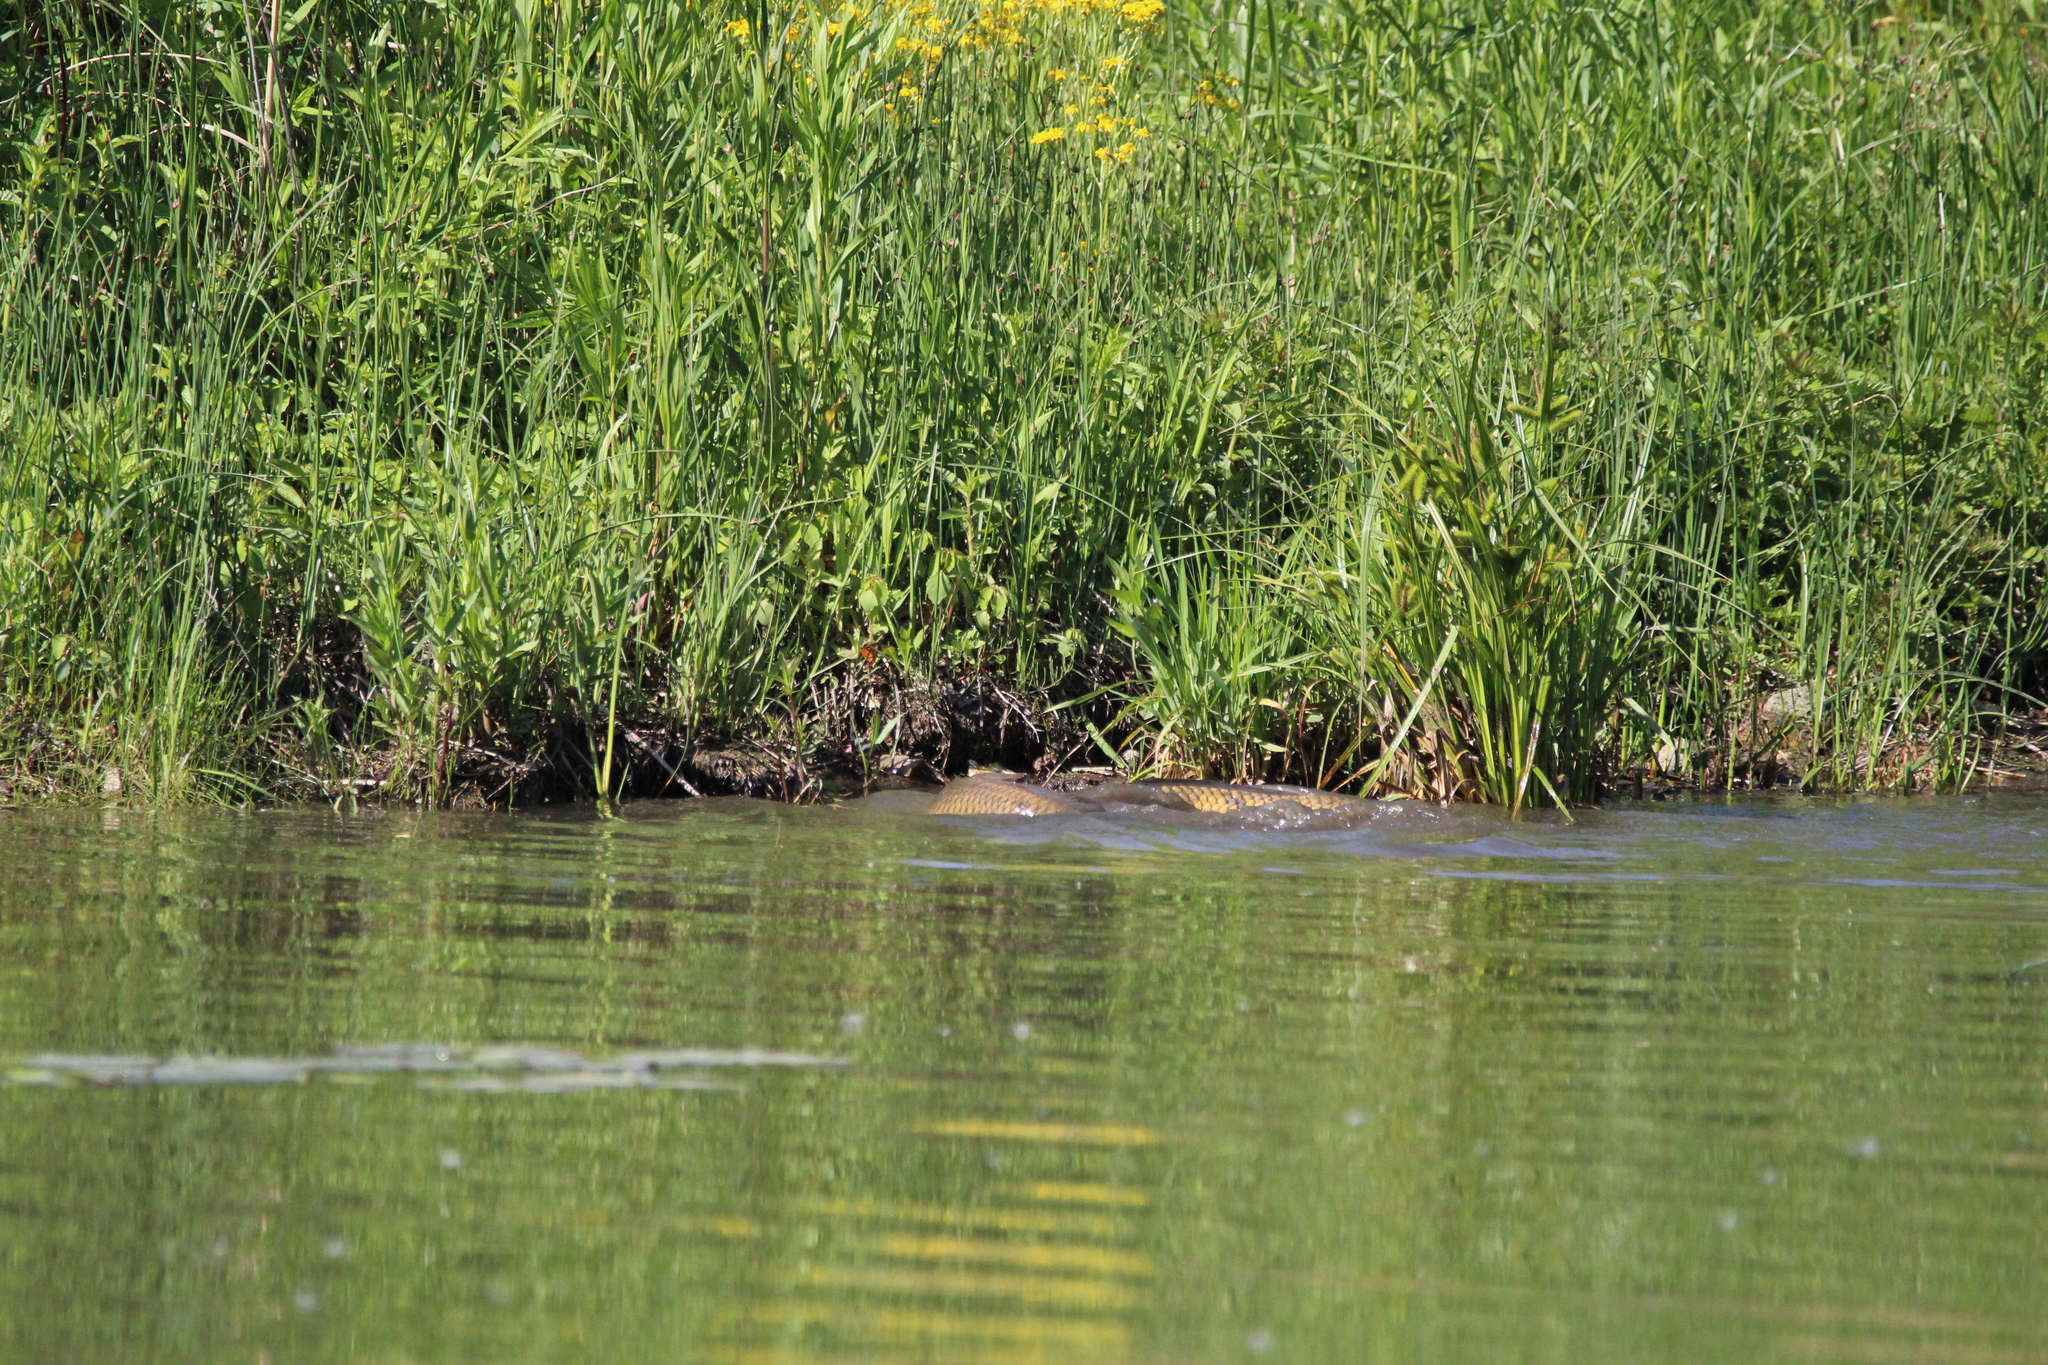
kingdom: Animalia
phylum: Chordata
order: Cypriniformes
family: Cyprinidae
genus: Cyprinus
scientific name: Cyprinus carpio
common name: Common carp
